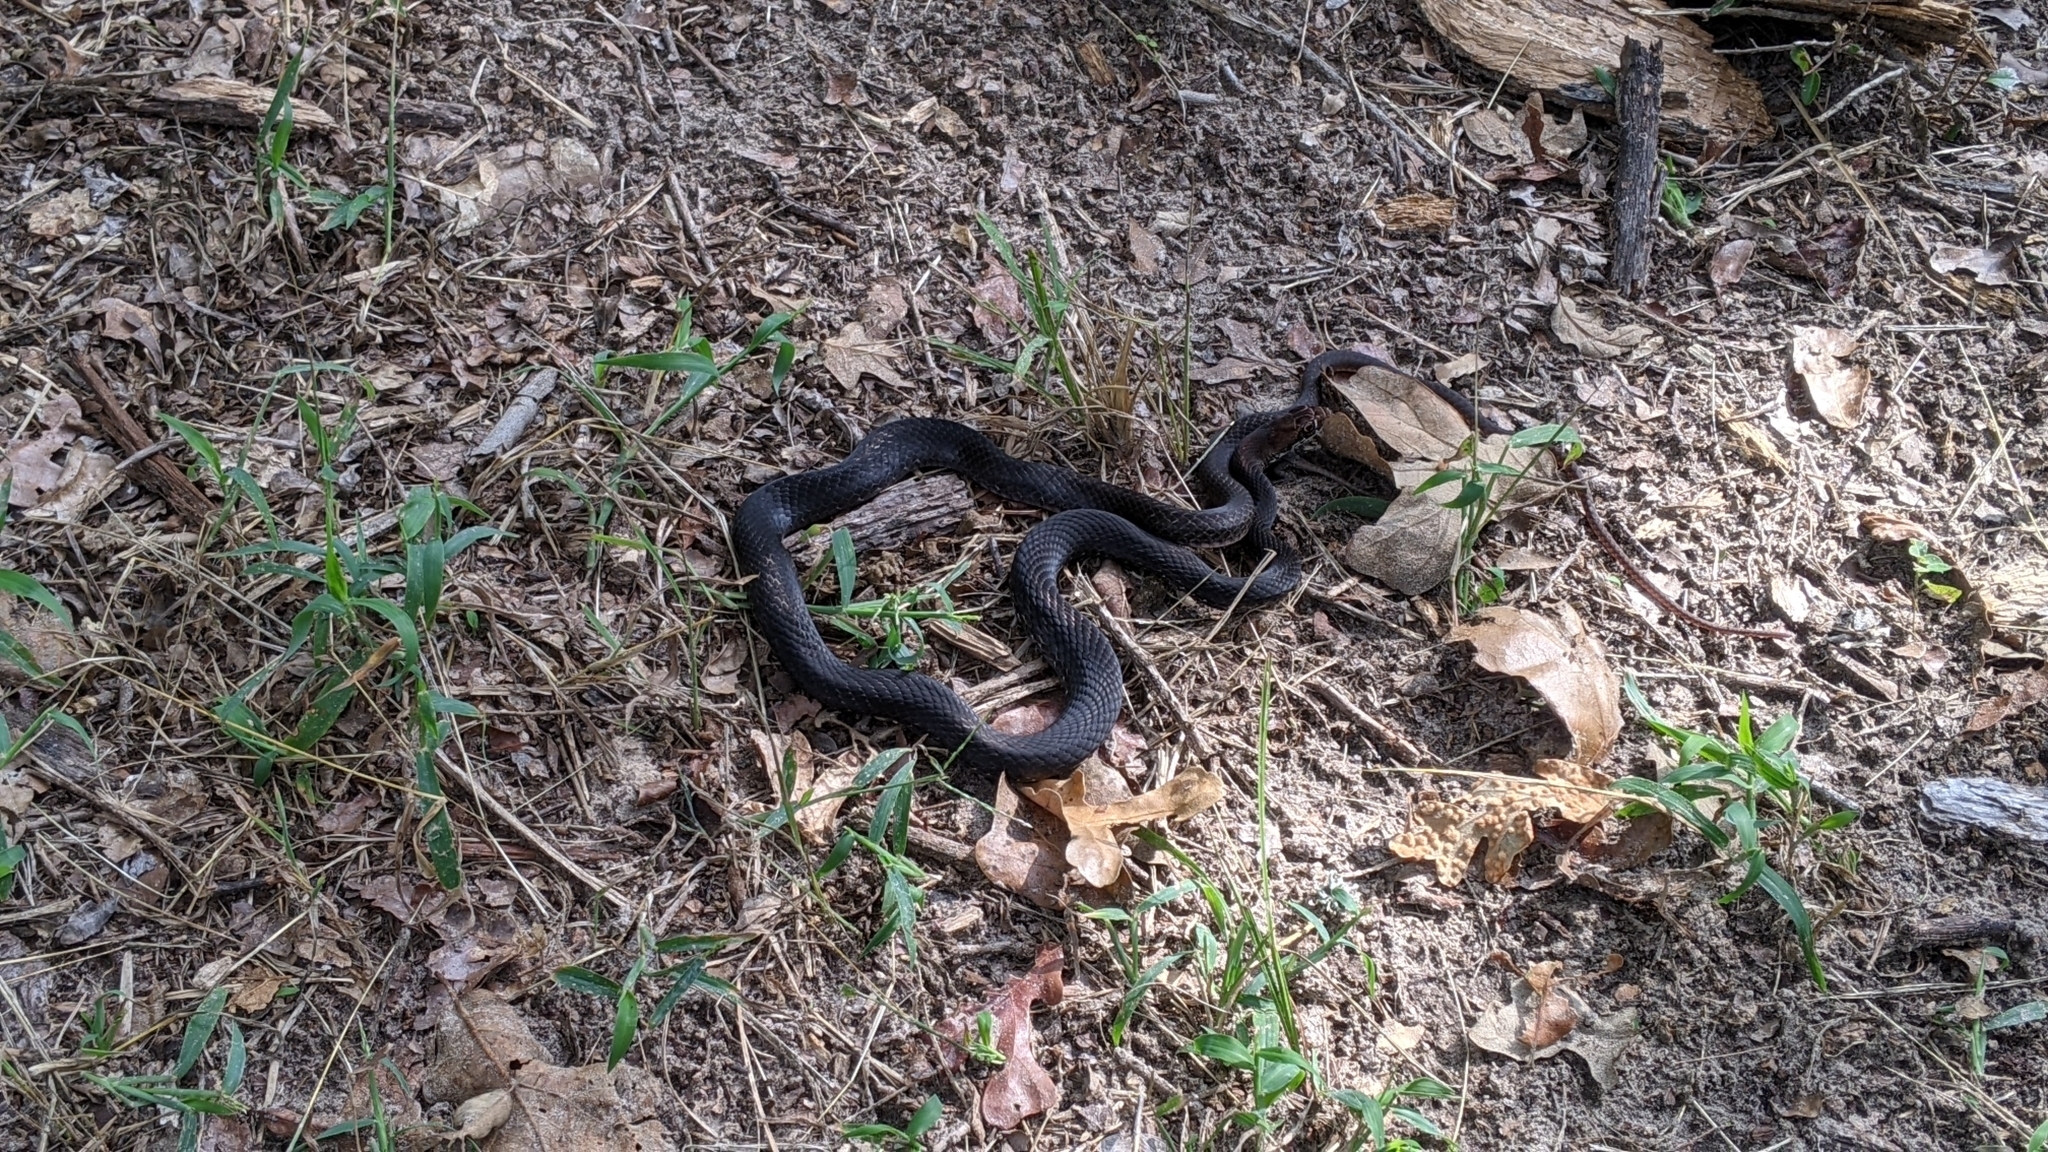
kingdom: Animalia
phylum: Chordata
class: Squamata
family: Colubridae
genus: Masticophis
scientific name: Masticophis flagellum
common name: Coachwhip
